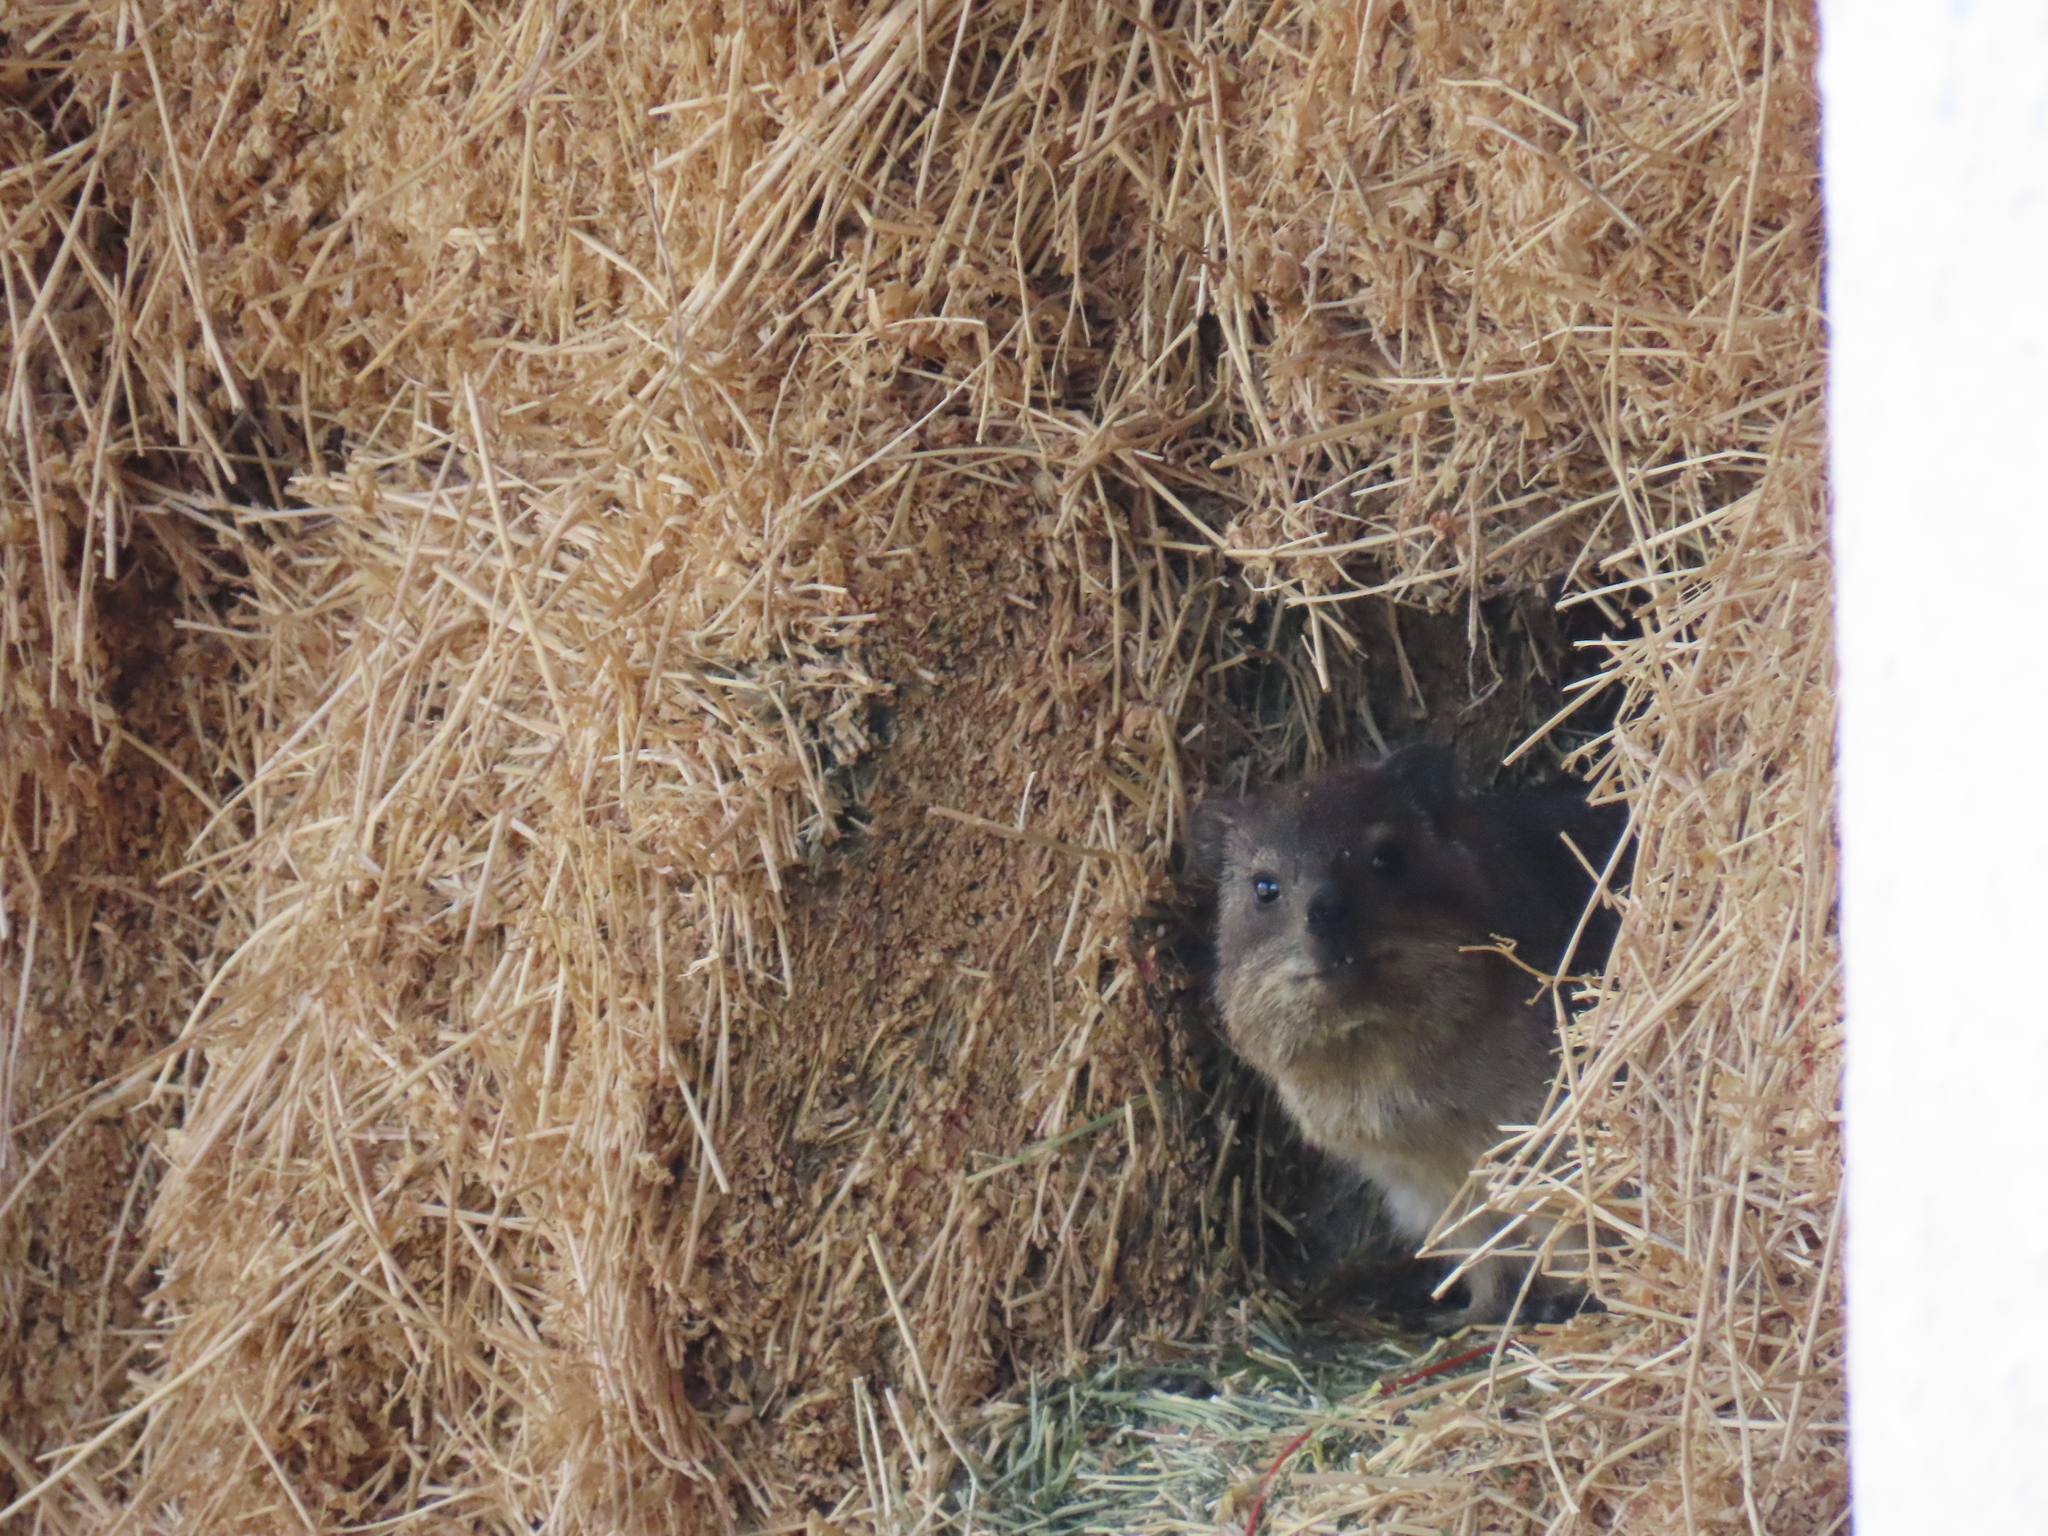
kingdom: Animalia
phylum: Chordata
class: Mammalia
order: Hyracoidea
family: Procaviidae
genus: Procavia
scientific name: Procavia capensis
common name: Rock hyrax
